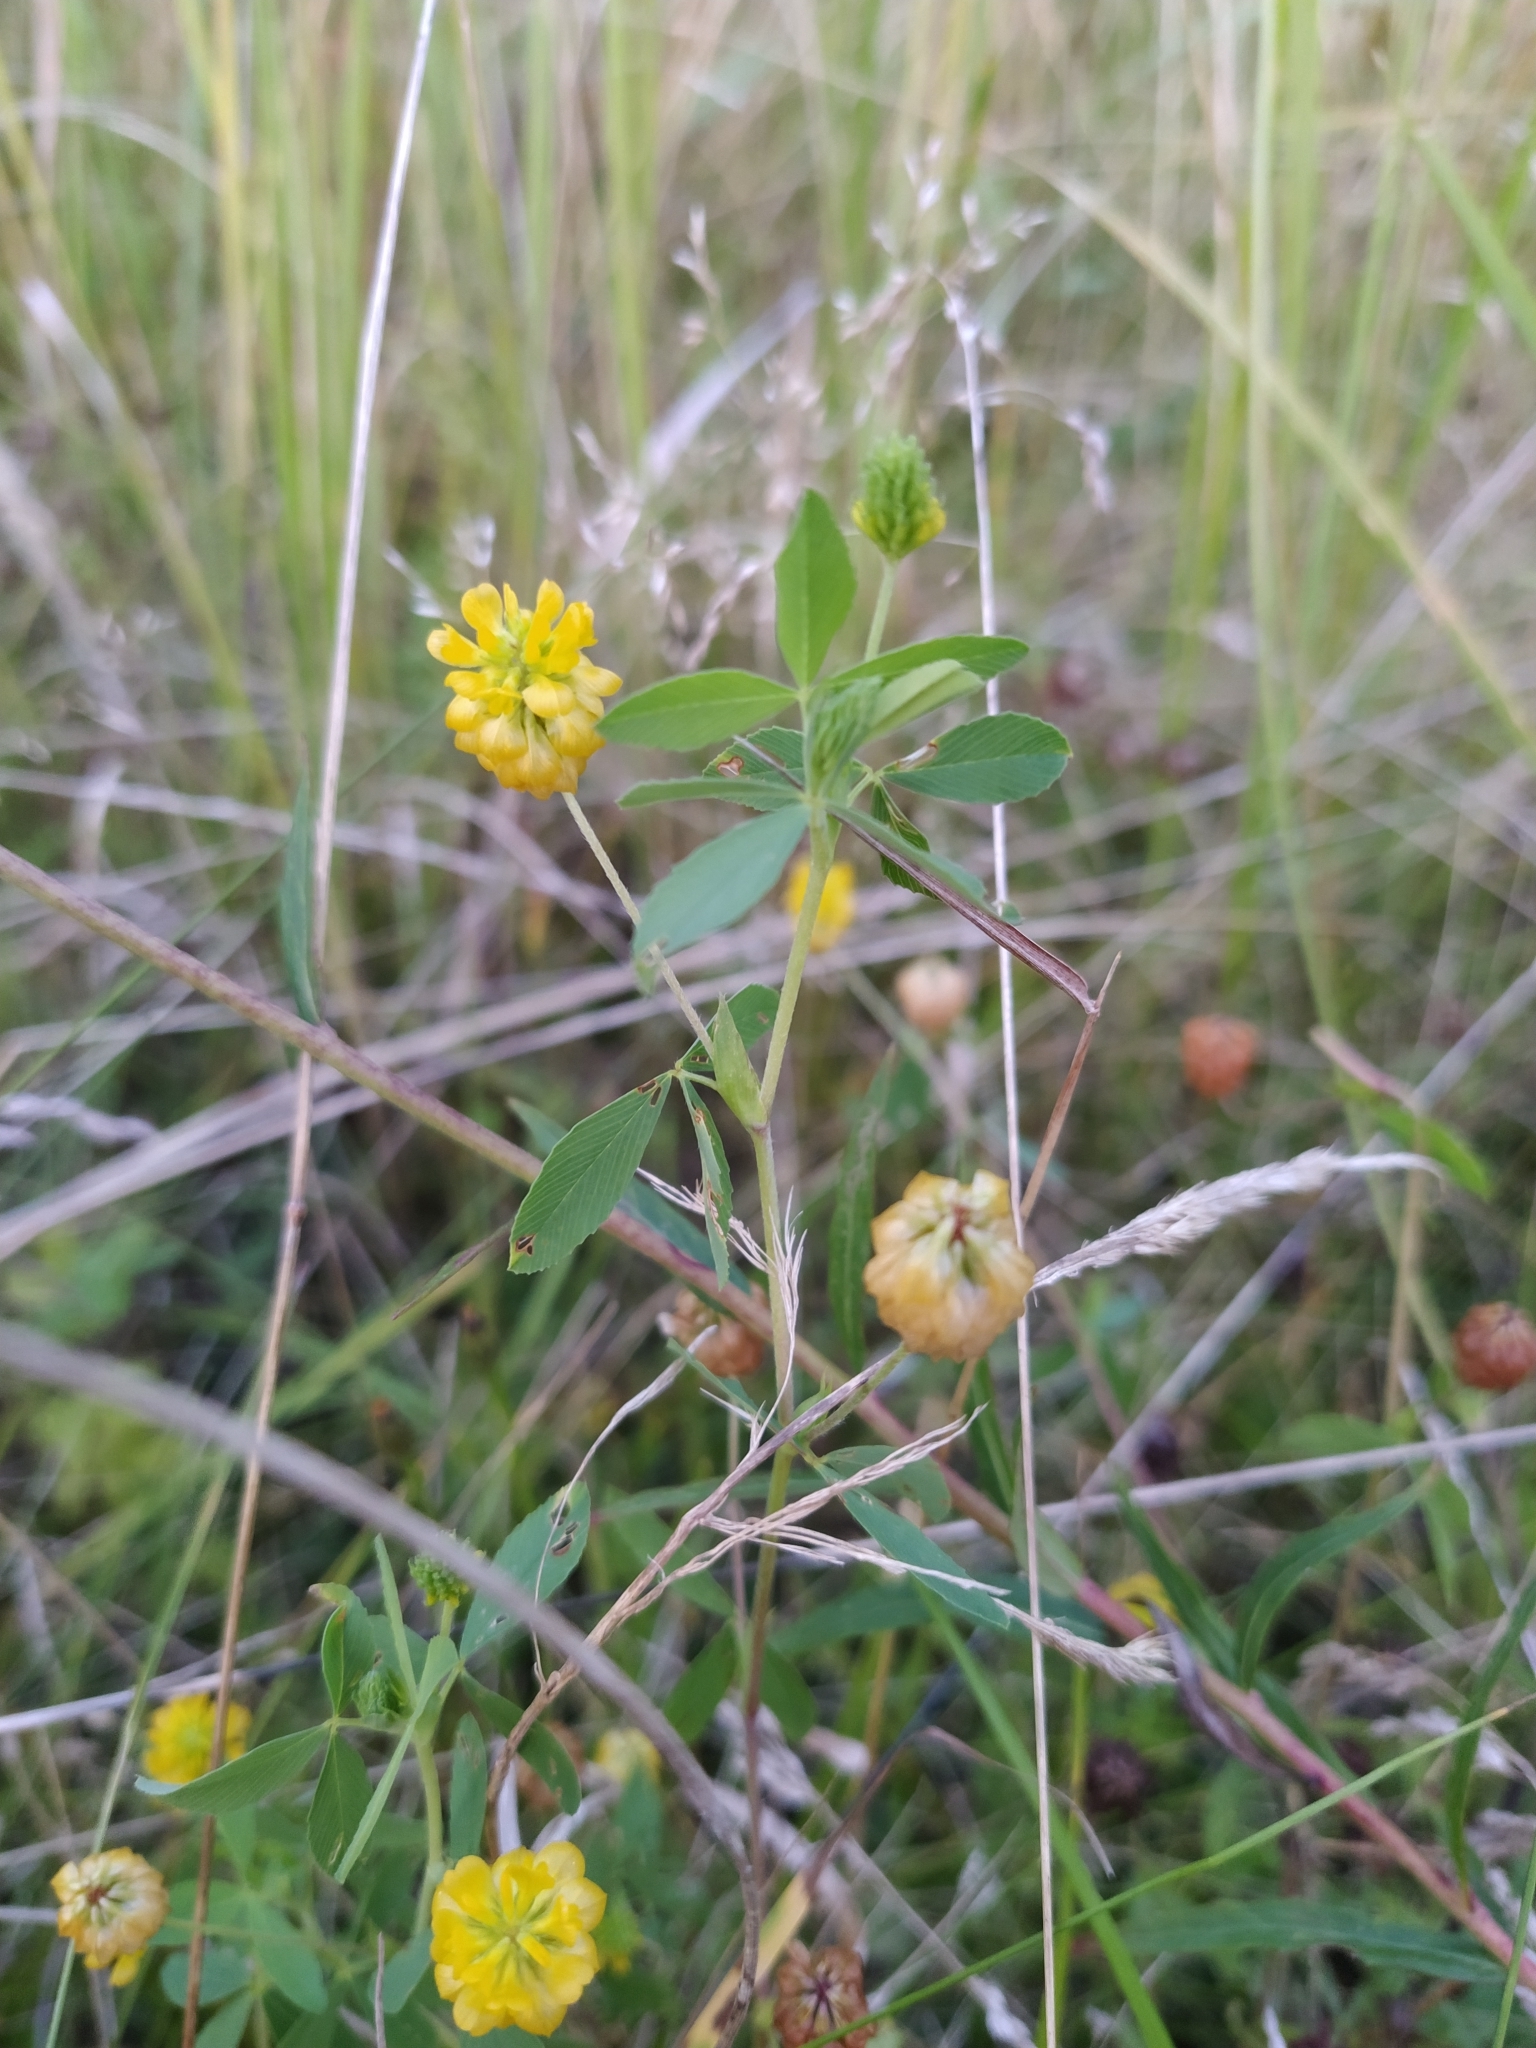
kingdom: Plantae
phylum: Tracheophyta
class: Magnoliopsida
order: Fabales
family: Fabaceae
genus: Trifolium
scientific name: Trifolium aureum
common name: Golden clover
